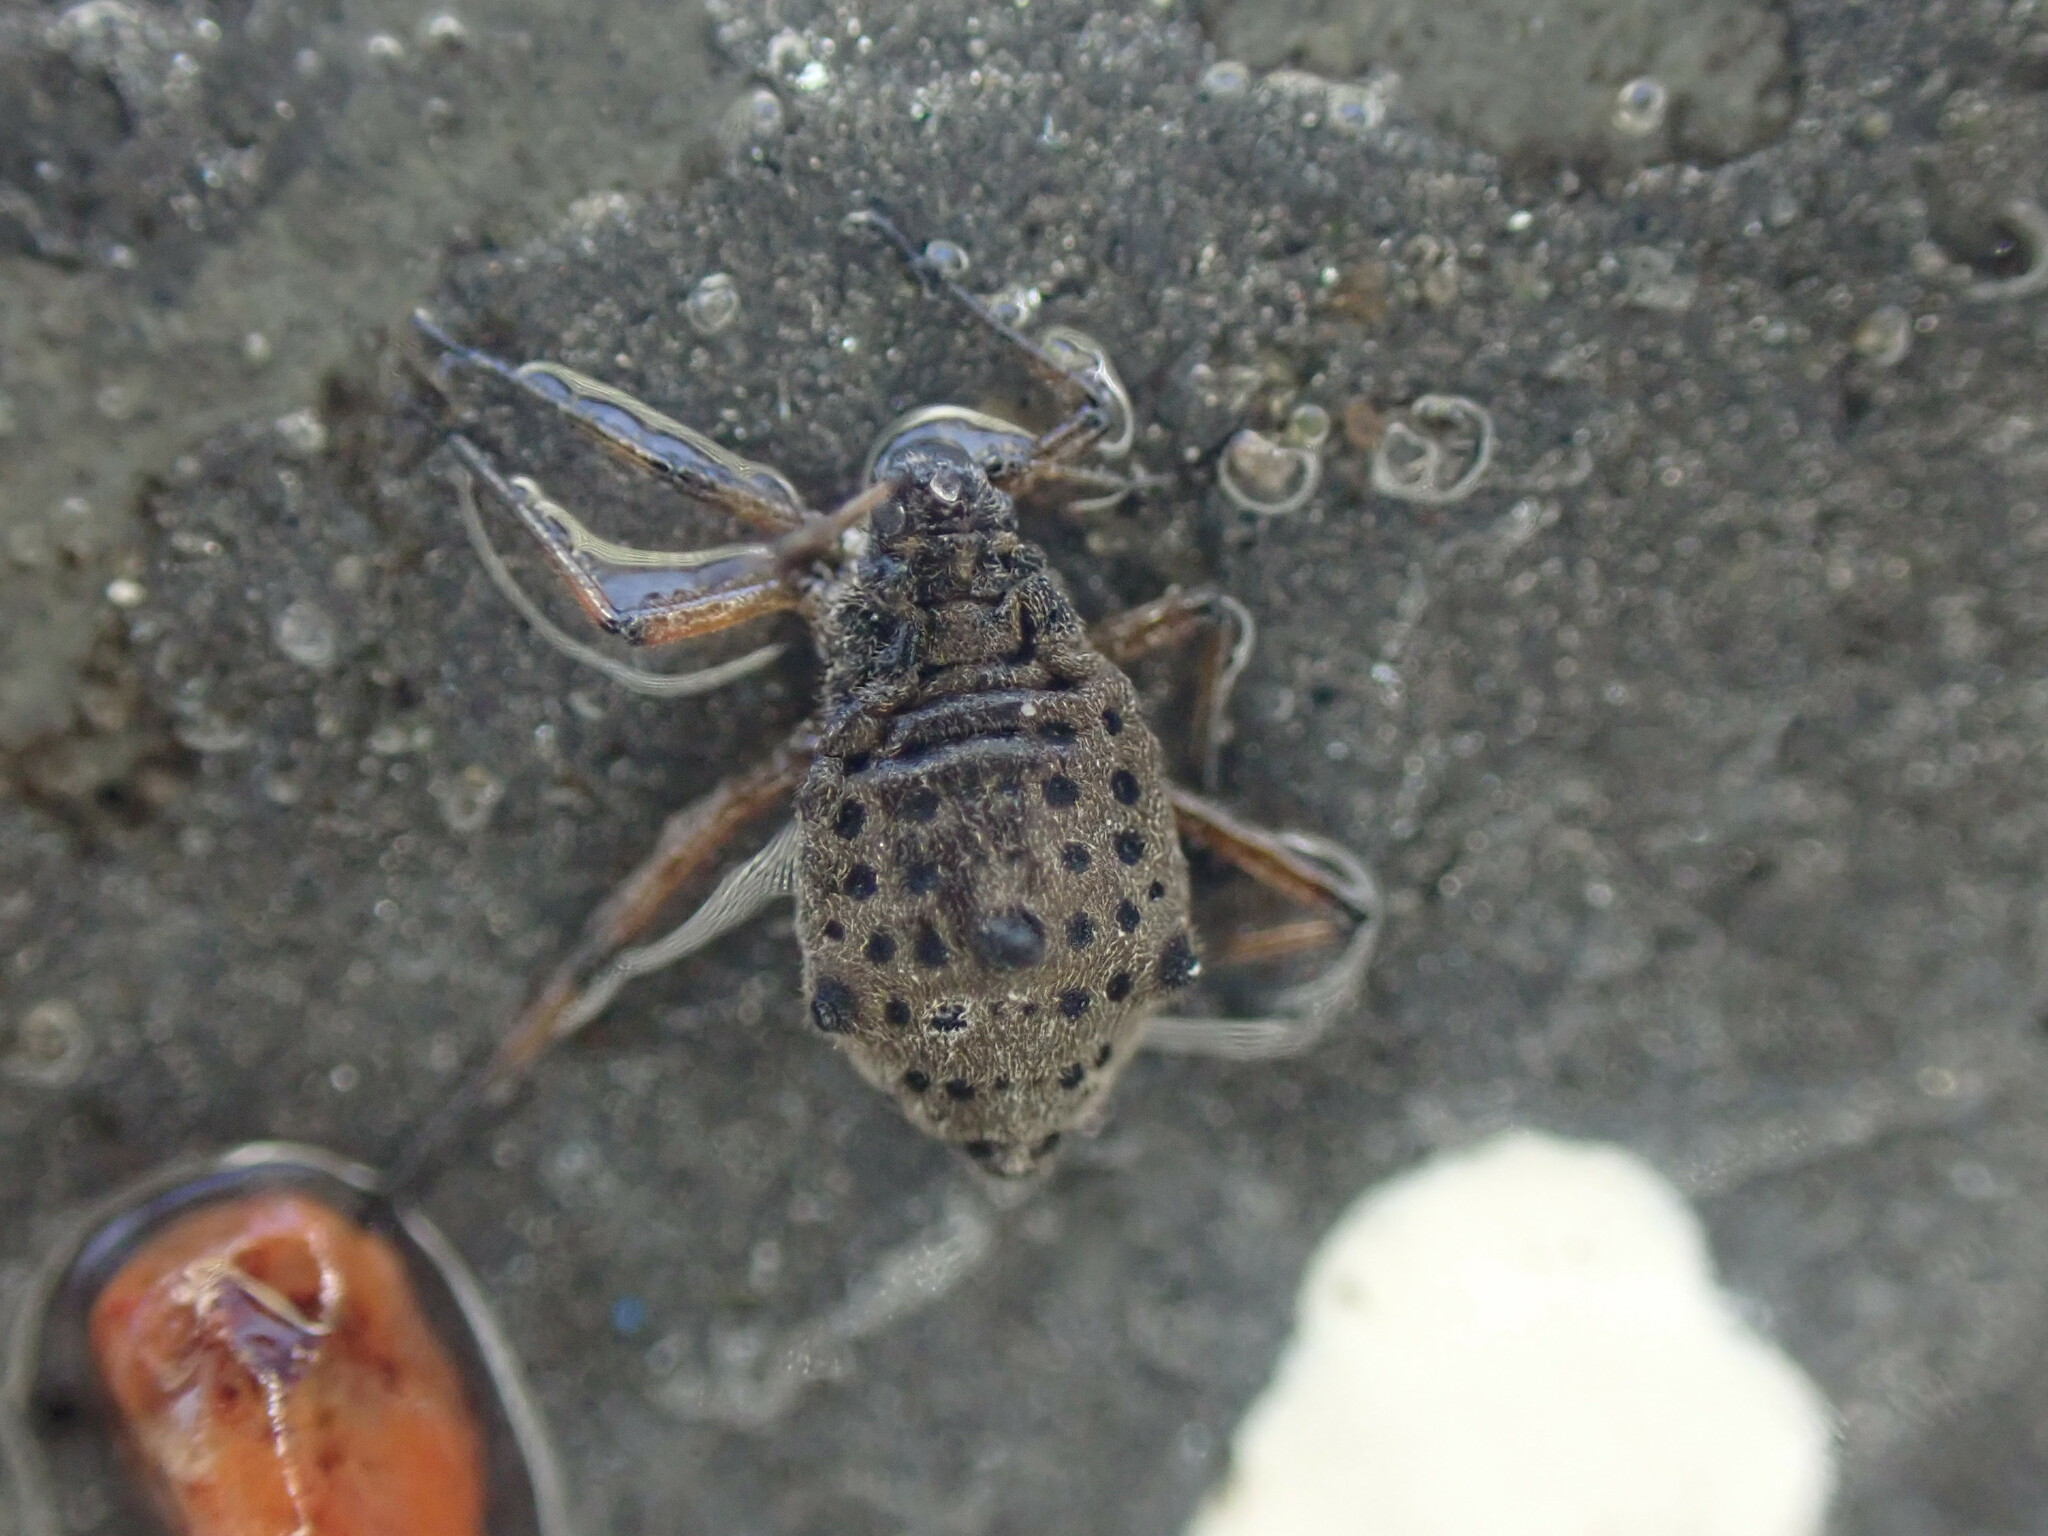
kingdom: Animalia
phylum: Arthropoda
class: Insecta
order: Hemiptera
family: Aphididae
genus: Tuberolachnus
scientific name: Tuberolachnus salignus
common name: Giant willow aphid
